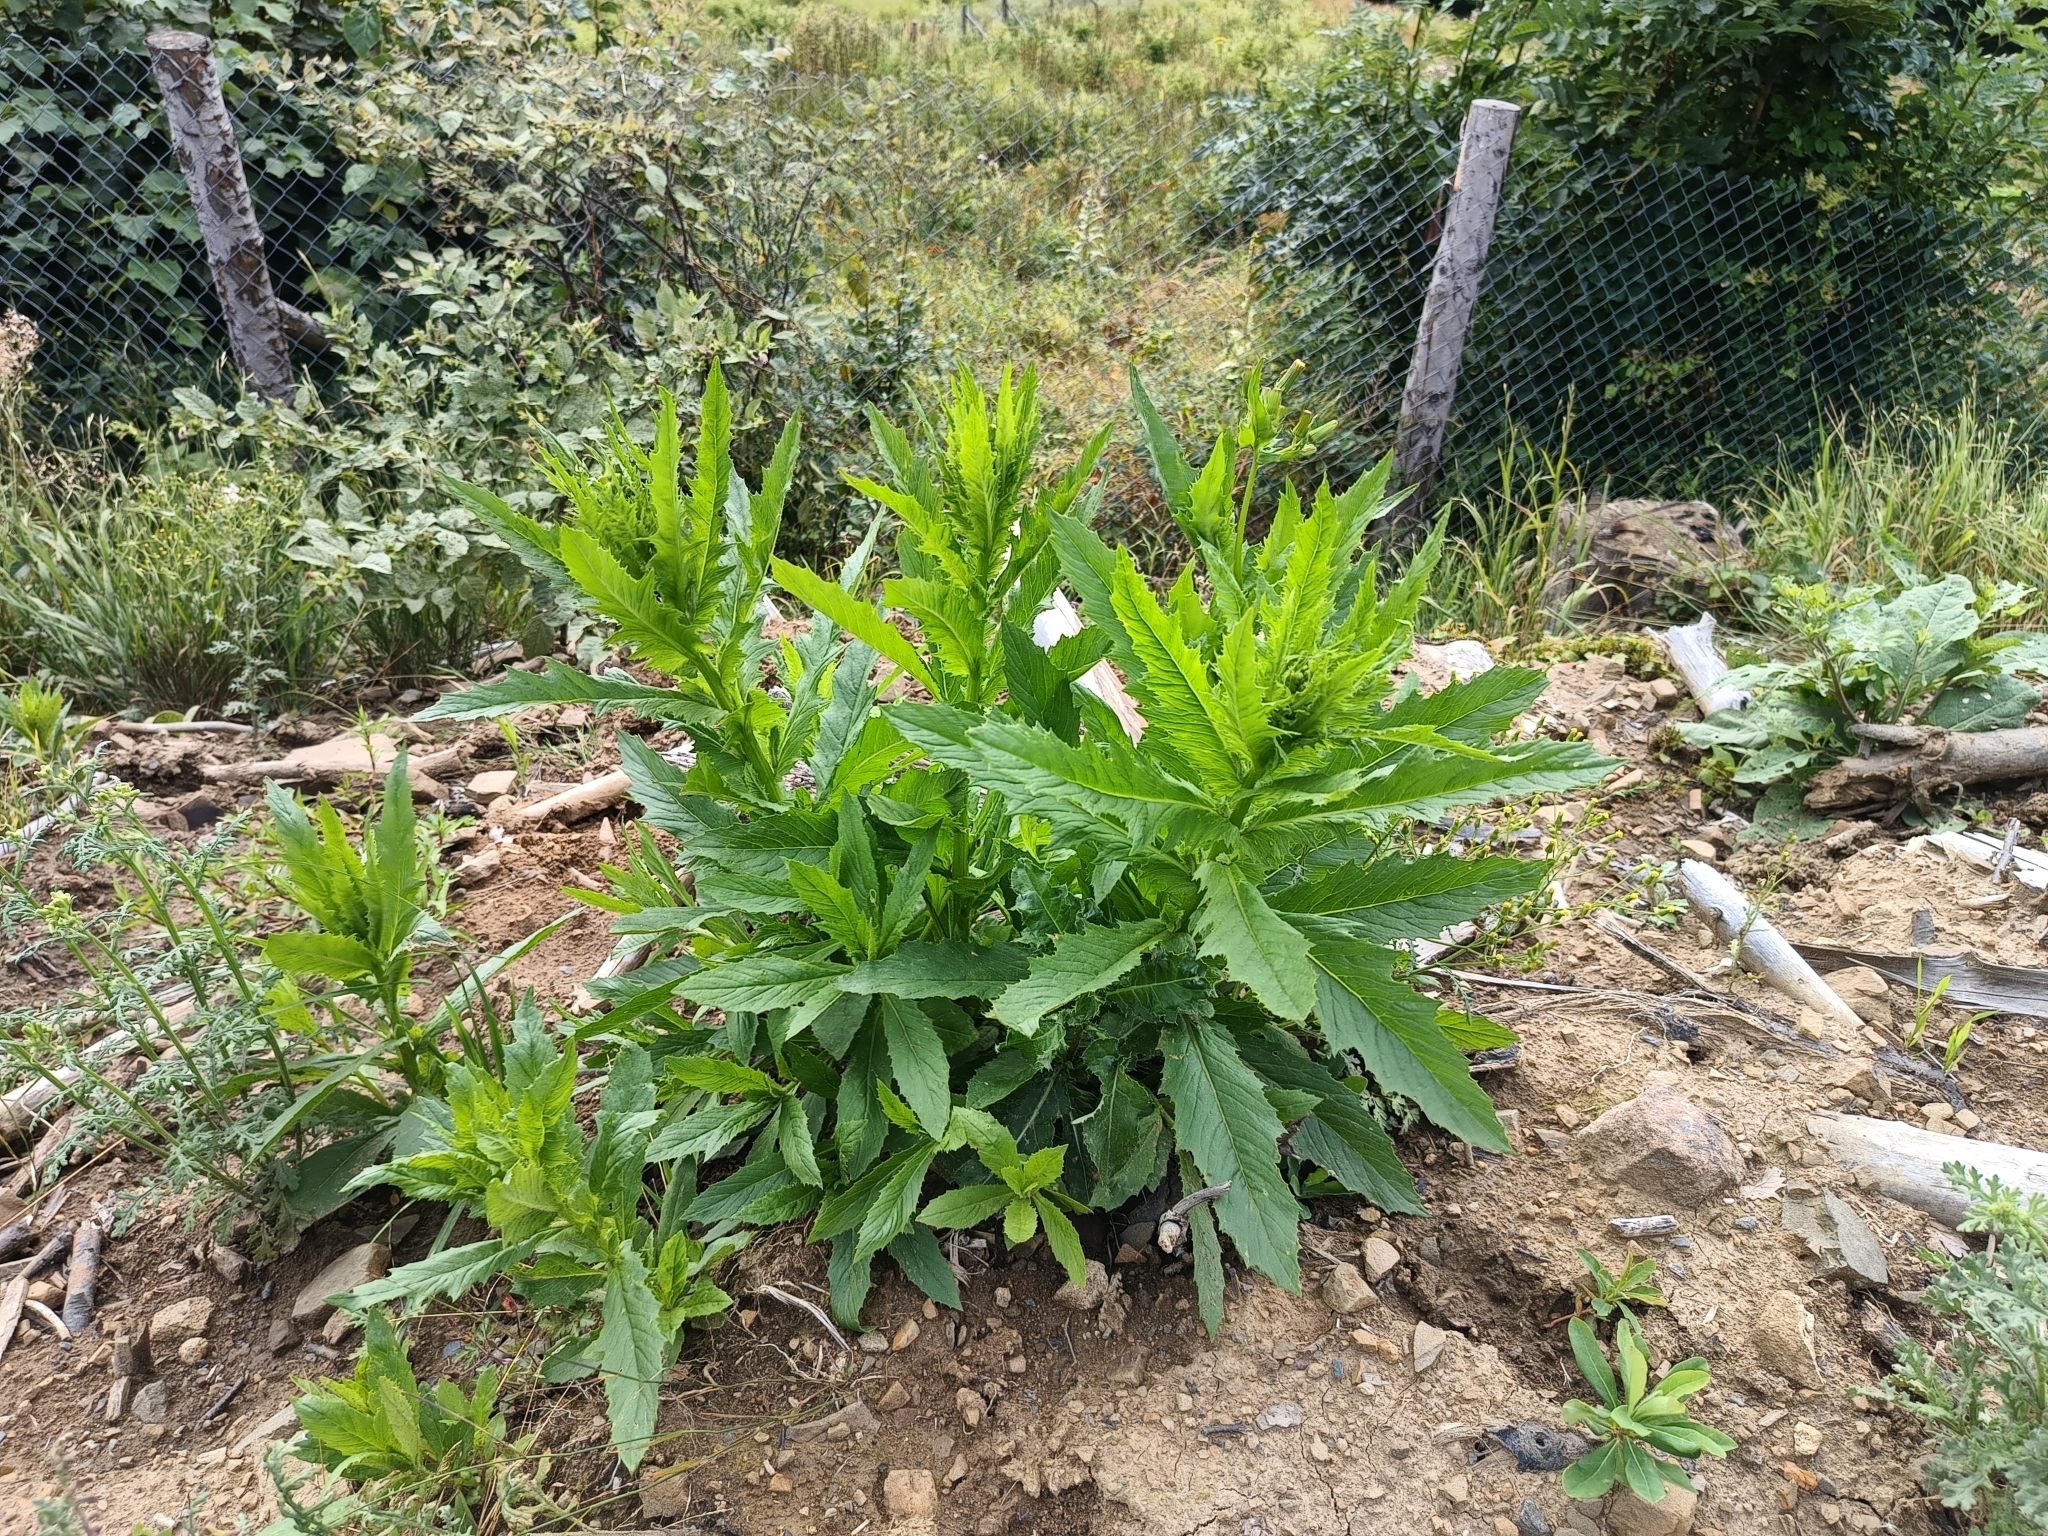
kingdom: Plantae
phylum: Tracheophyta
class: Magnoliopsida
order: Asterales
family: Asteraceae
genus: Erechtites
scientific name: Erechtites hieraciifolius
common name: American burnweed
